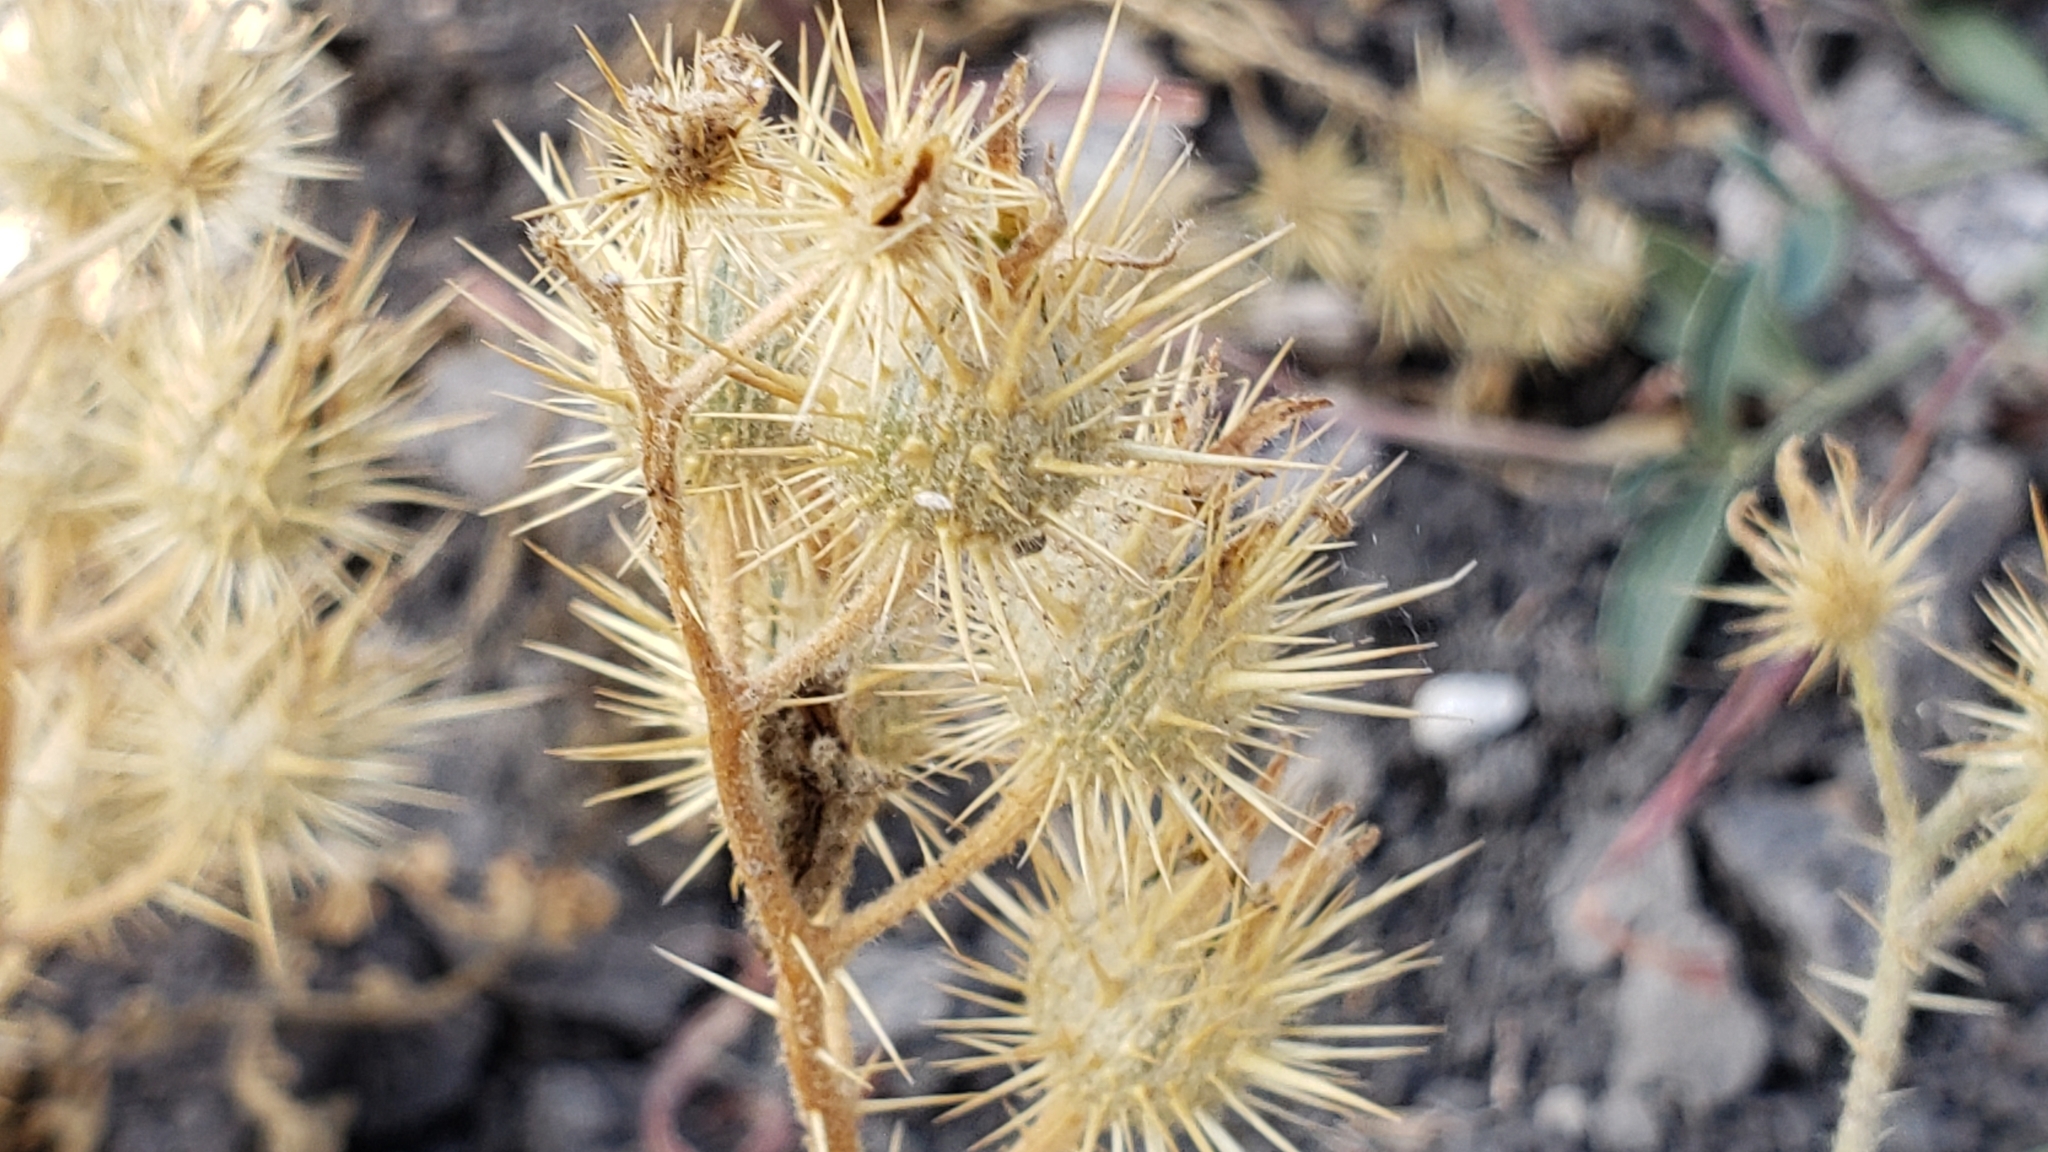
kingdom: Plantae
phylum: Tracheophyta
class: Magnoliopsida
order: Solanales
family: Solanaceae
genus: Solanum
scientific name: Solanum angustifolium
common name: Buffalobur nightshade
